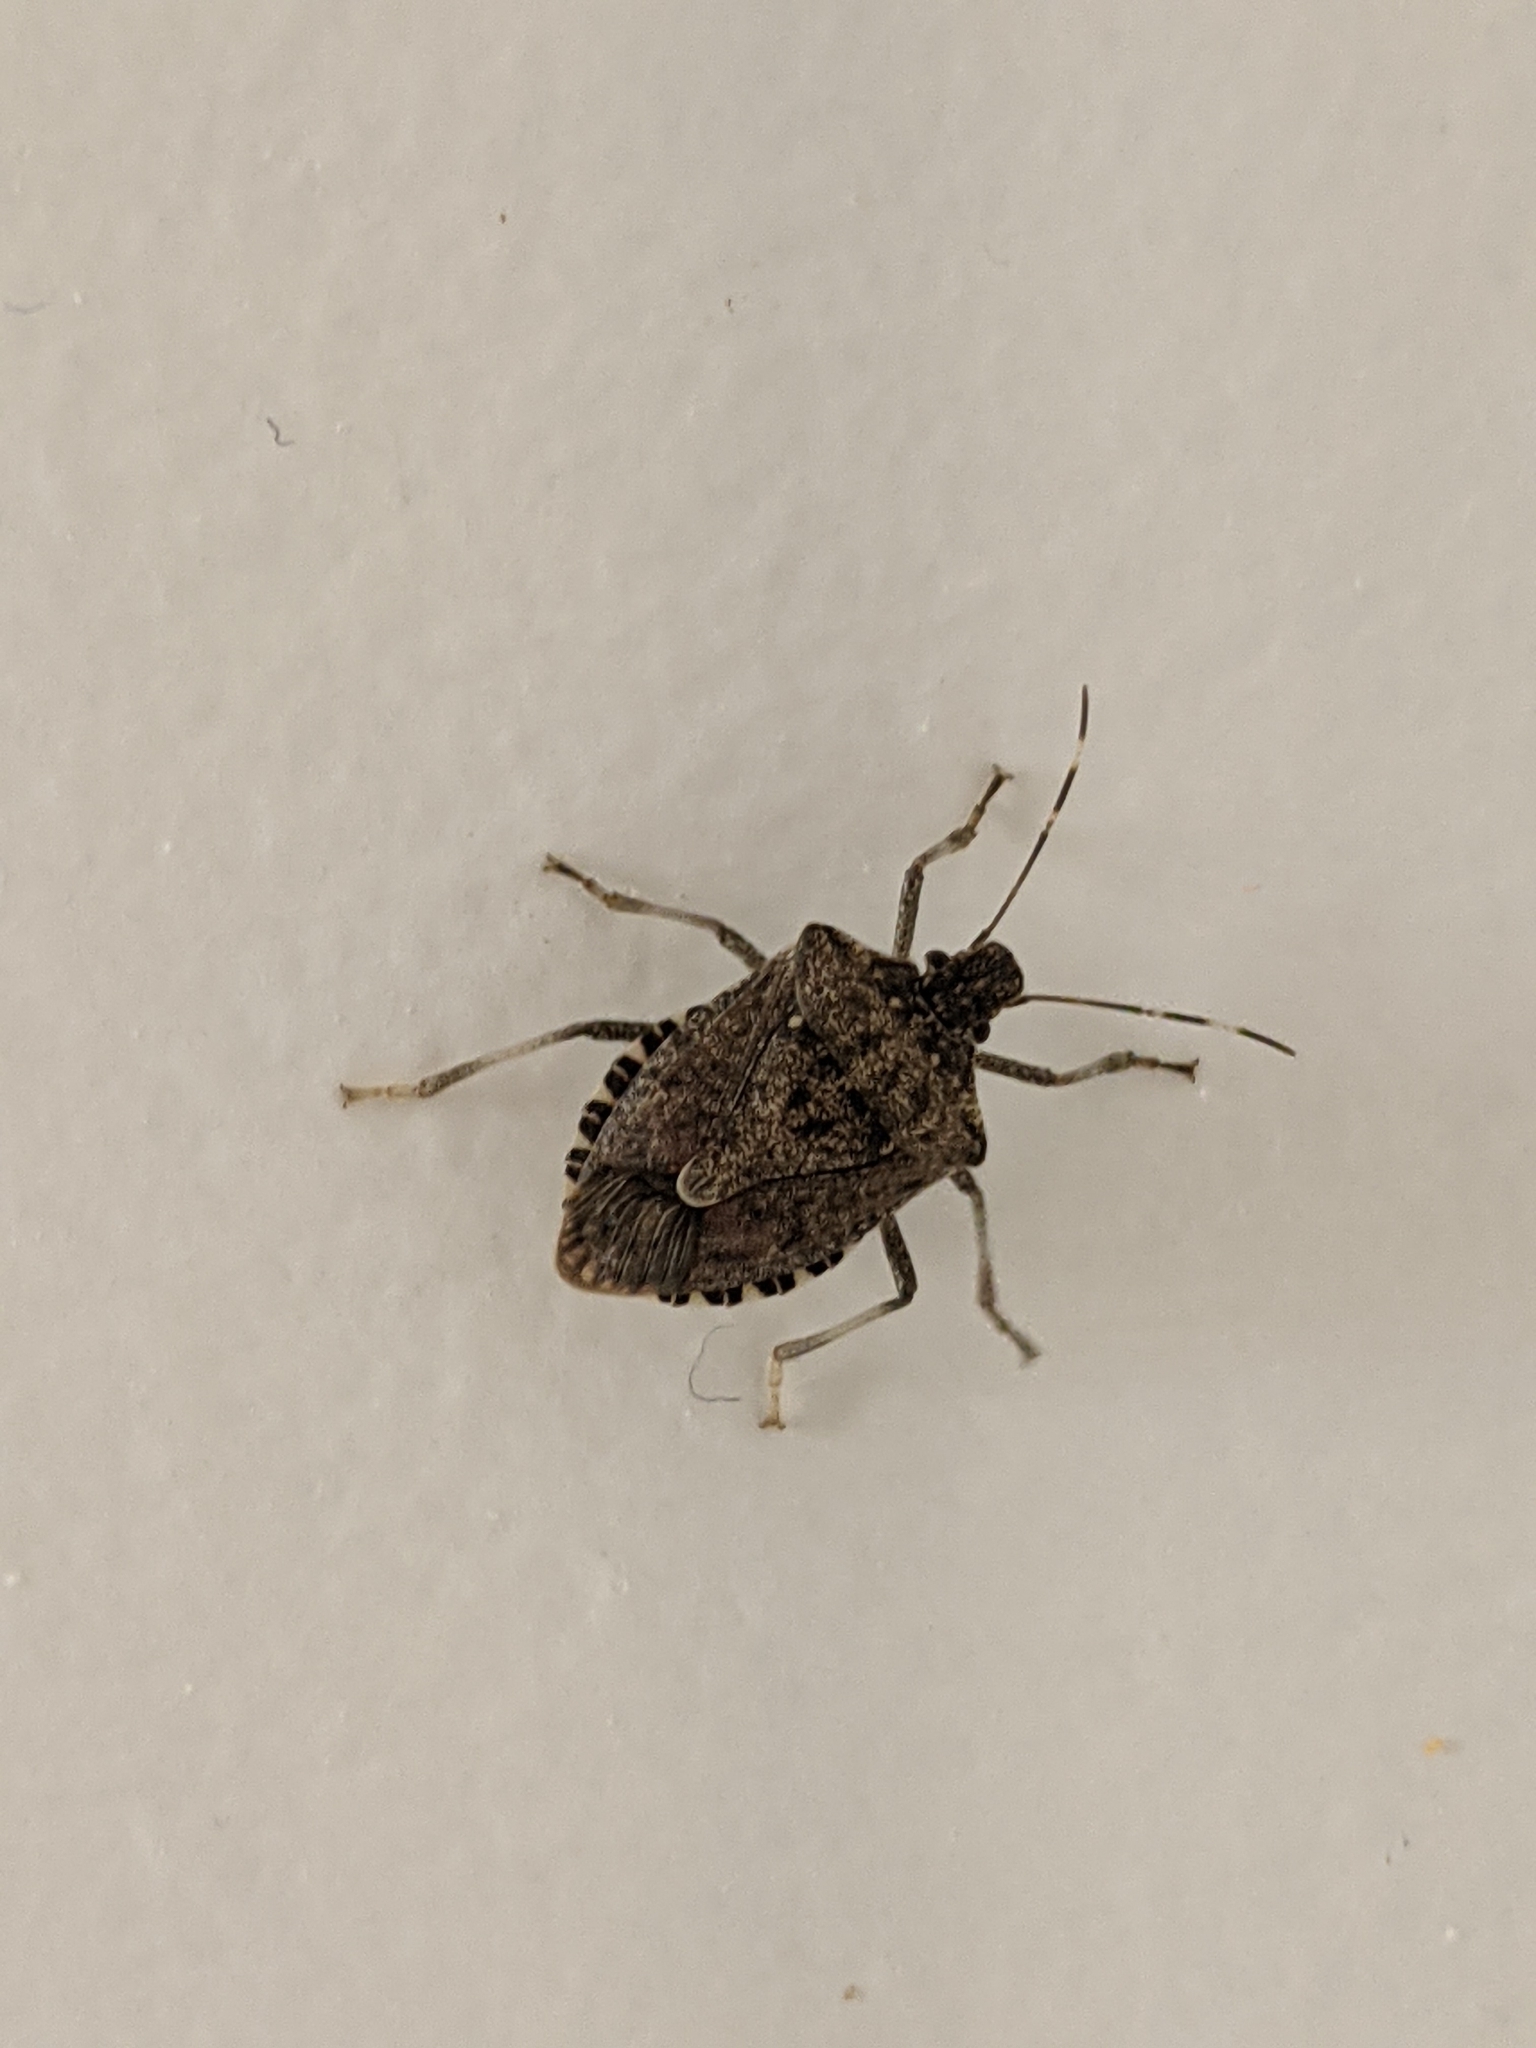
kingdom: Animalia
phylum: Arthropoda
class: Insecta
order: Hemiptera
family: Pentatomidae
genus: Halyomorpha
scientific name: Halyomorpha halys
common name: Brown marmorated stink bug
